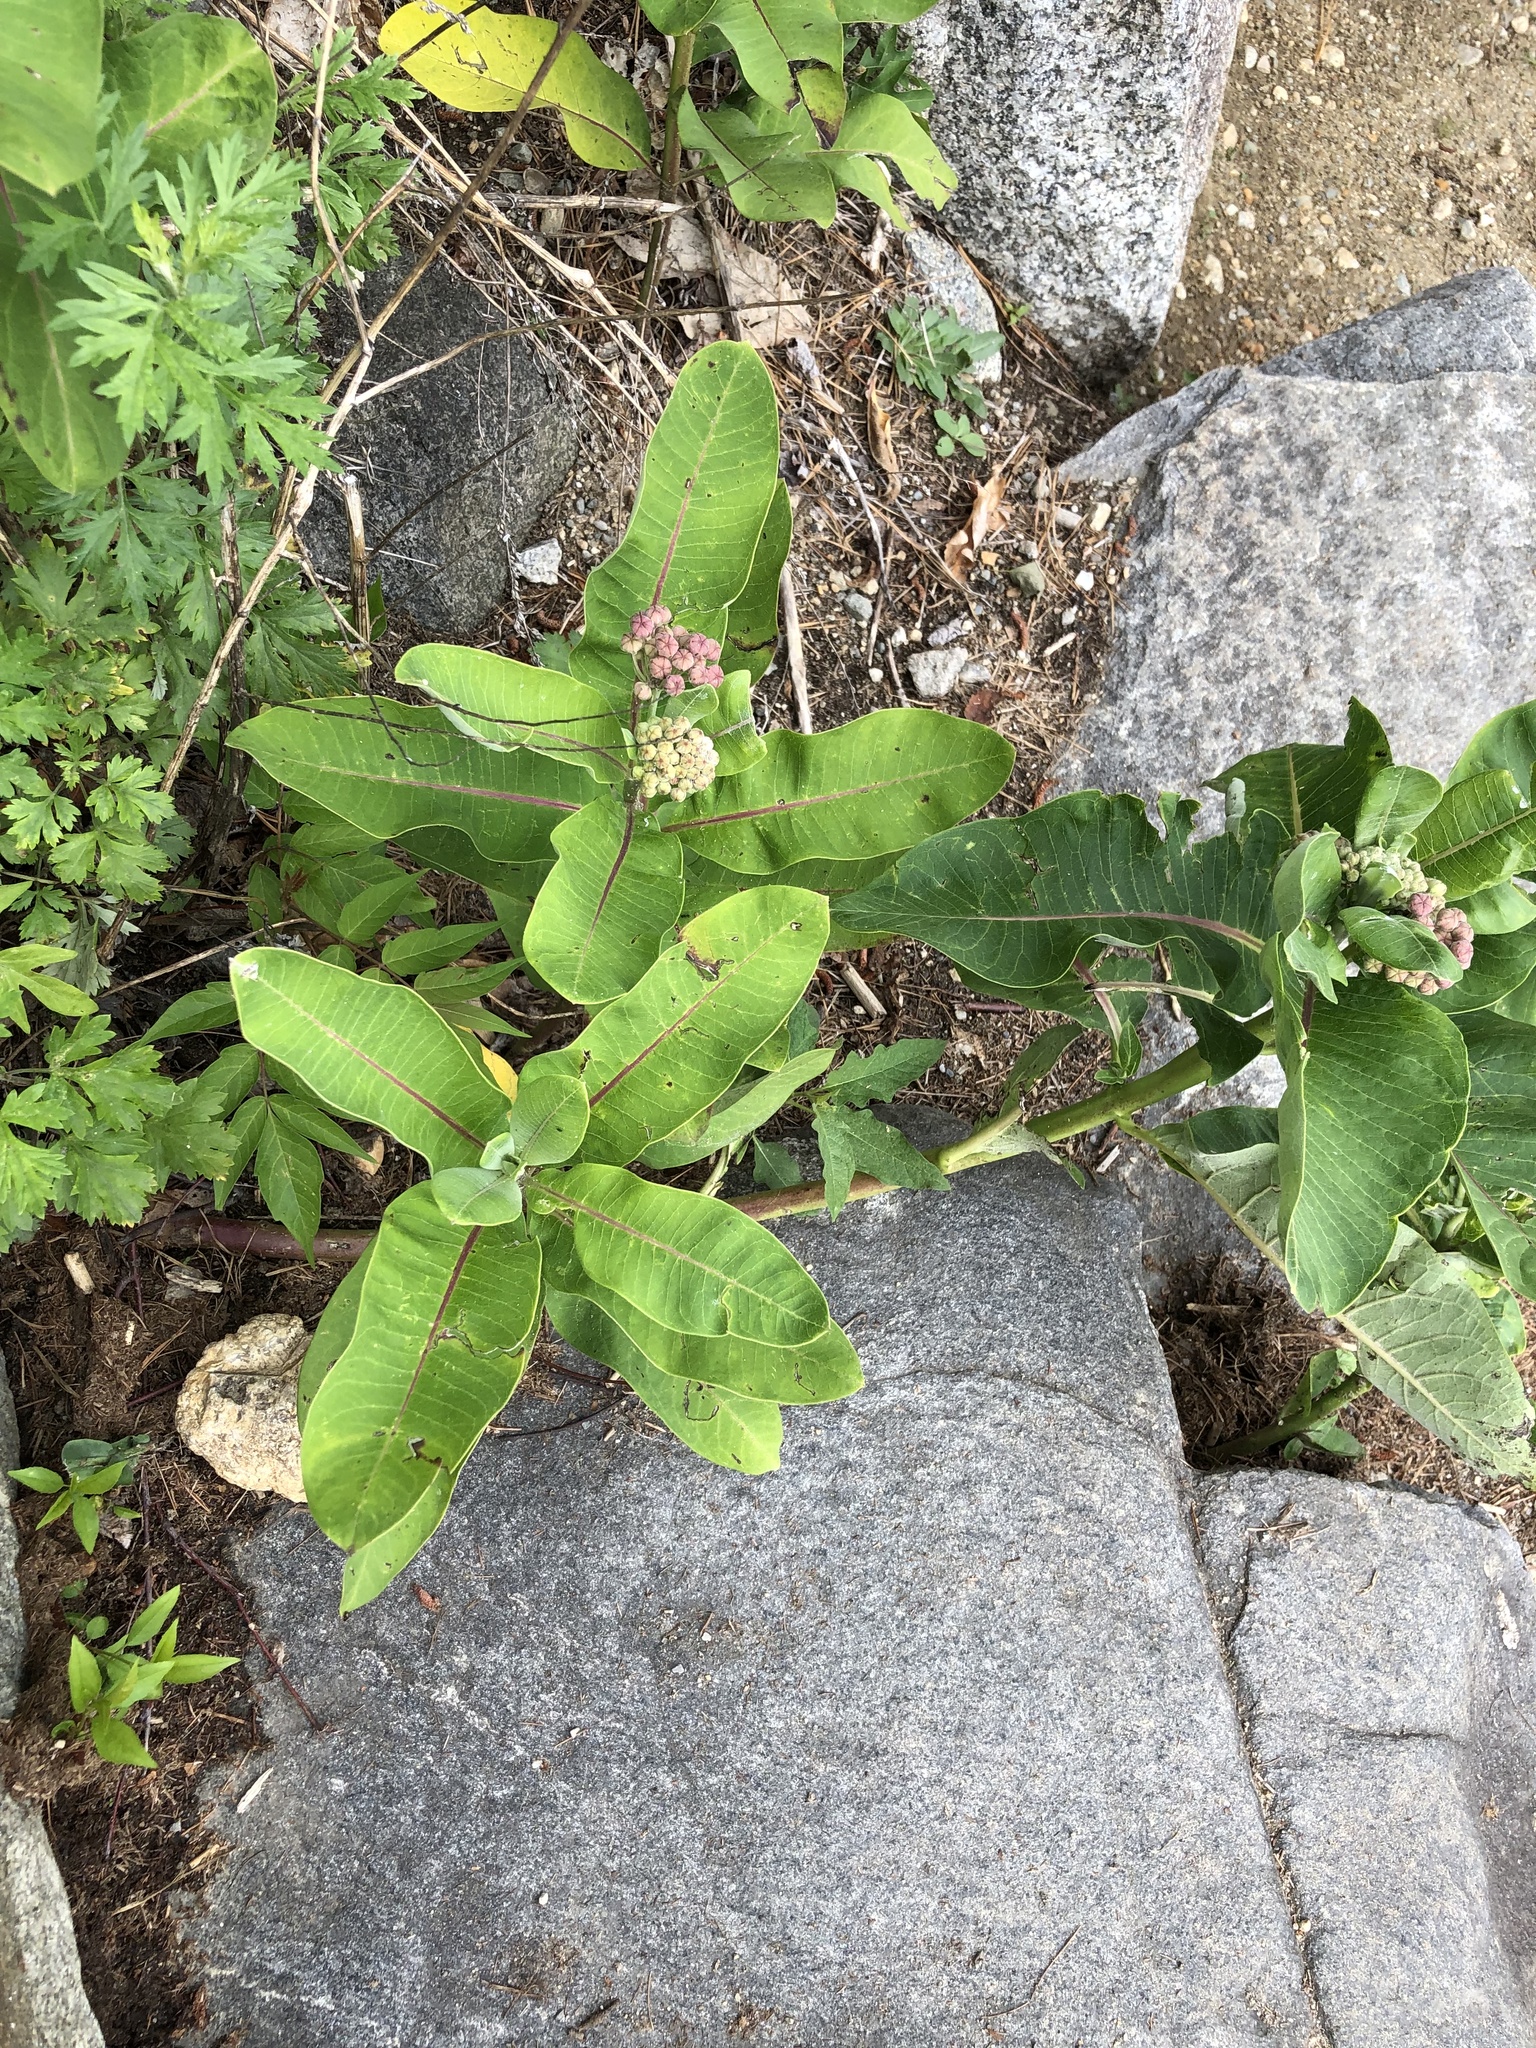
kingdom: Plantae
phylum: Tracheophyta
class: Magnoliopsida
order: Gentianales
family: Apocynaceae
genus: Asclepias
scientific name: Asclepias syriaca
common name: Common milkweed
